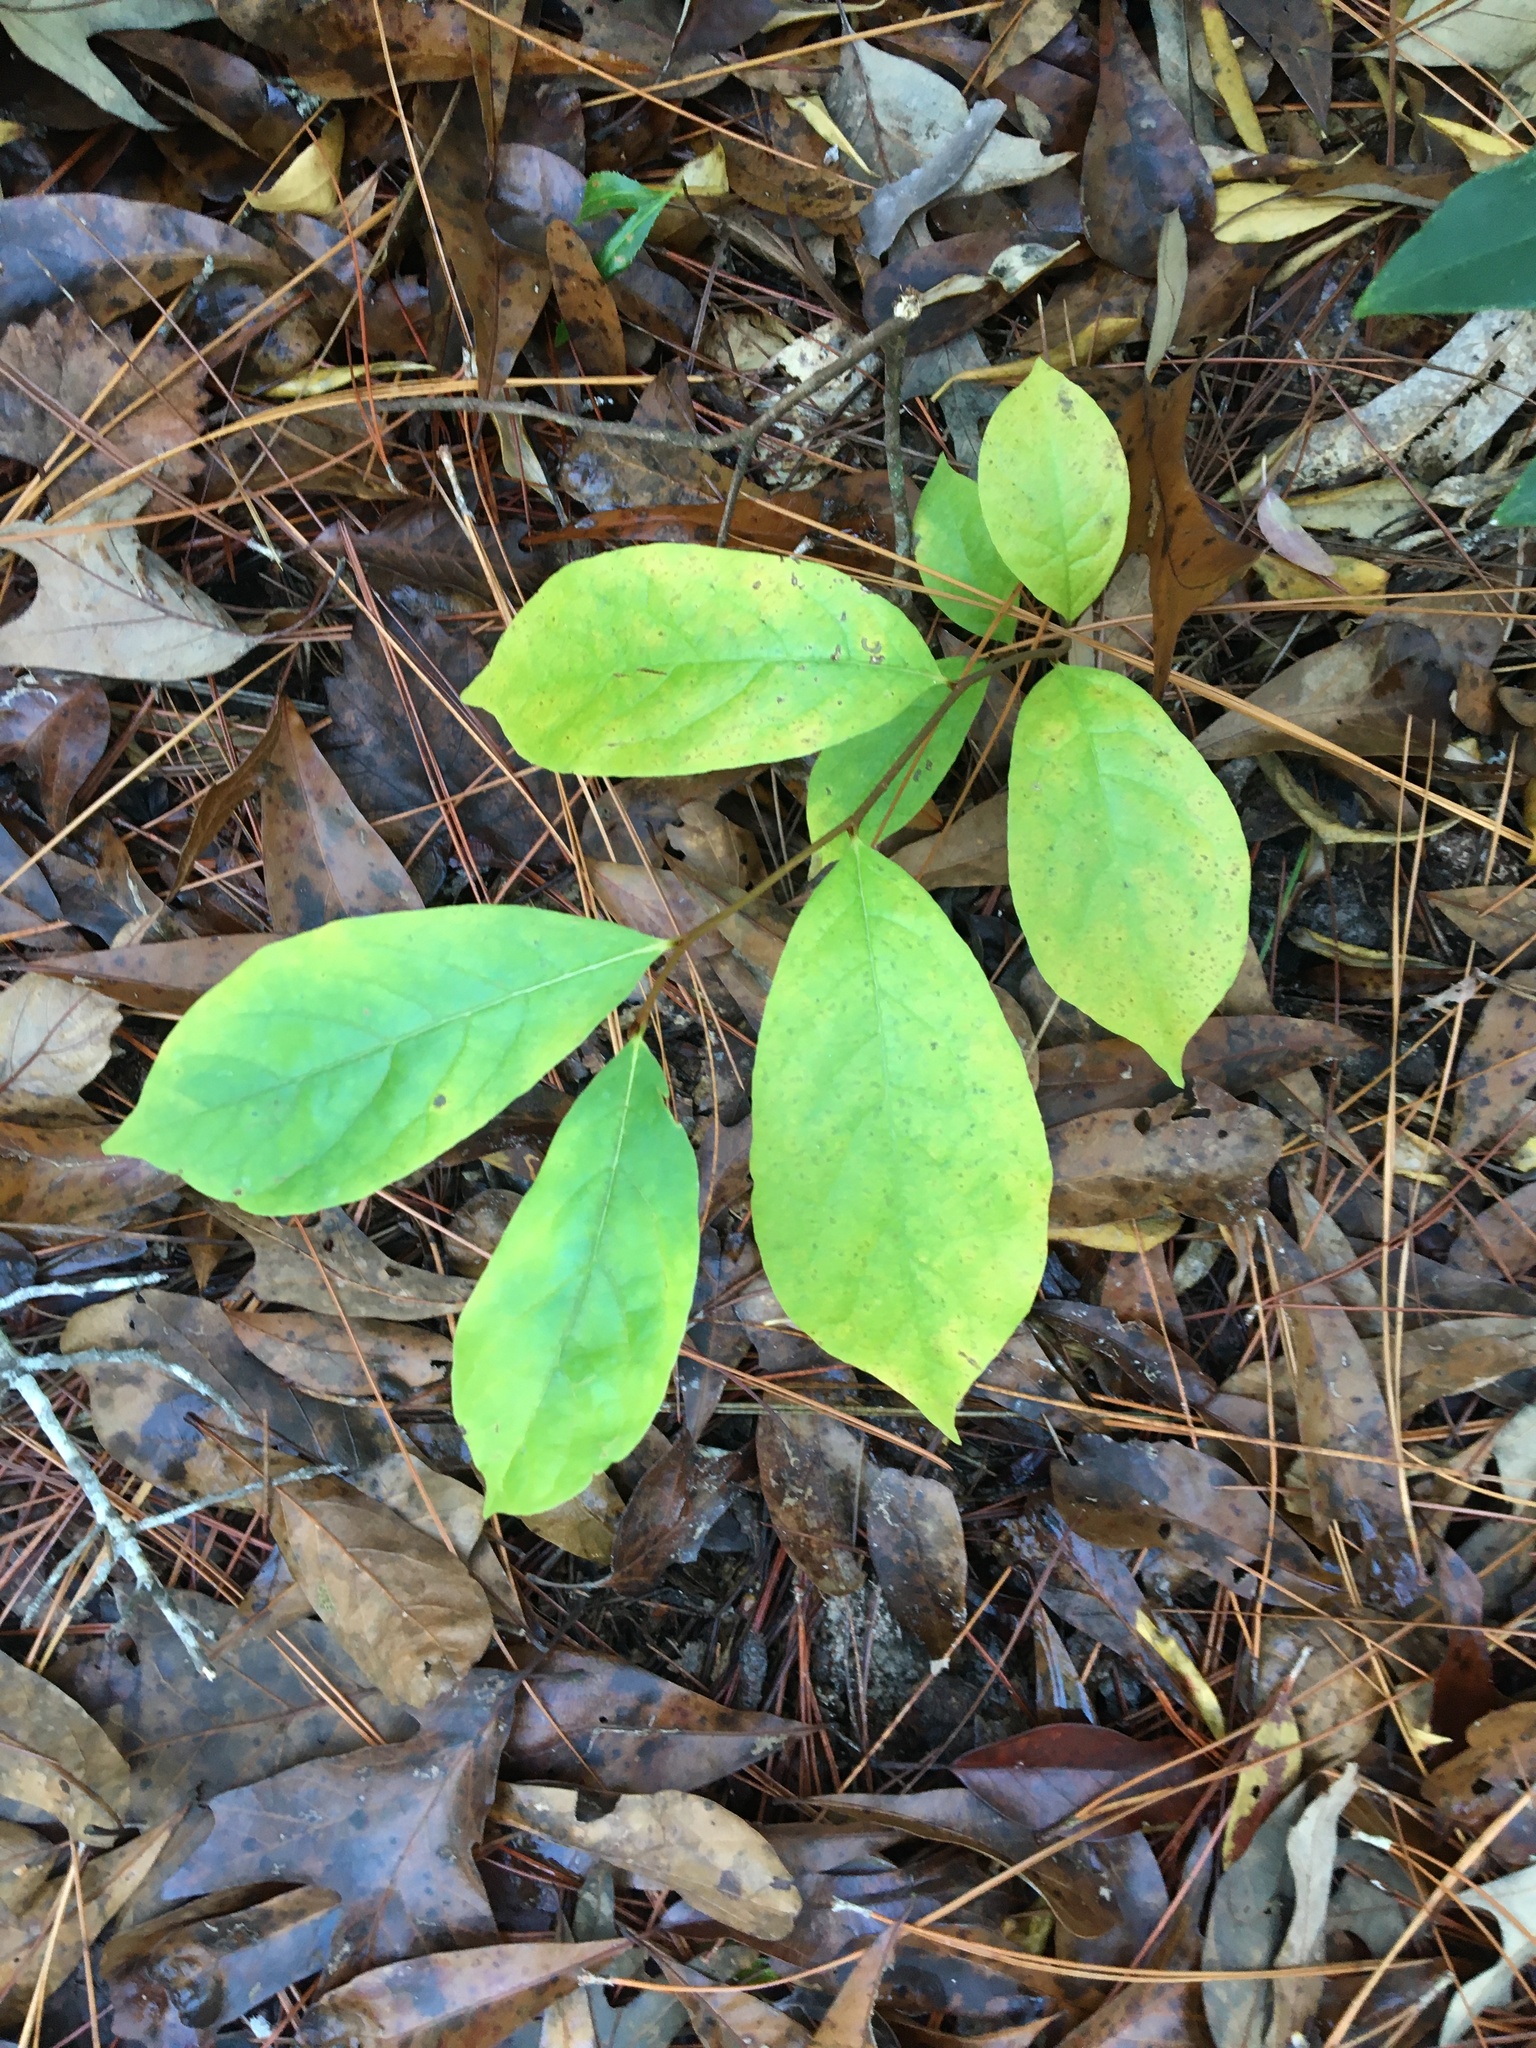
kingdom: Plantae
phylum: Tracheophyta
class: Magnoliopsida
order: Magnoliales
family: Annonaceae
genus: Asimina
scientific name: Asimina parviflora
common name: Dwarf pawpaw
